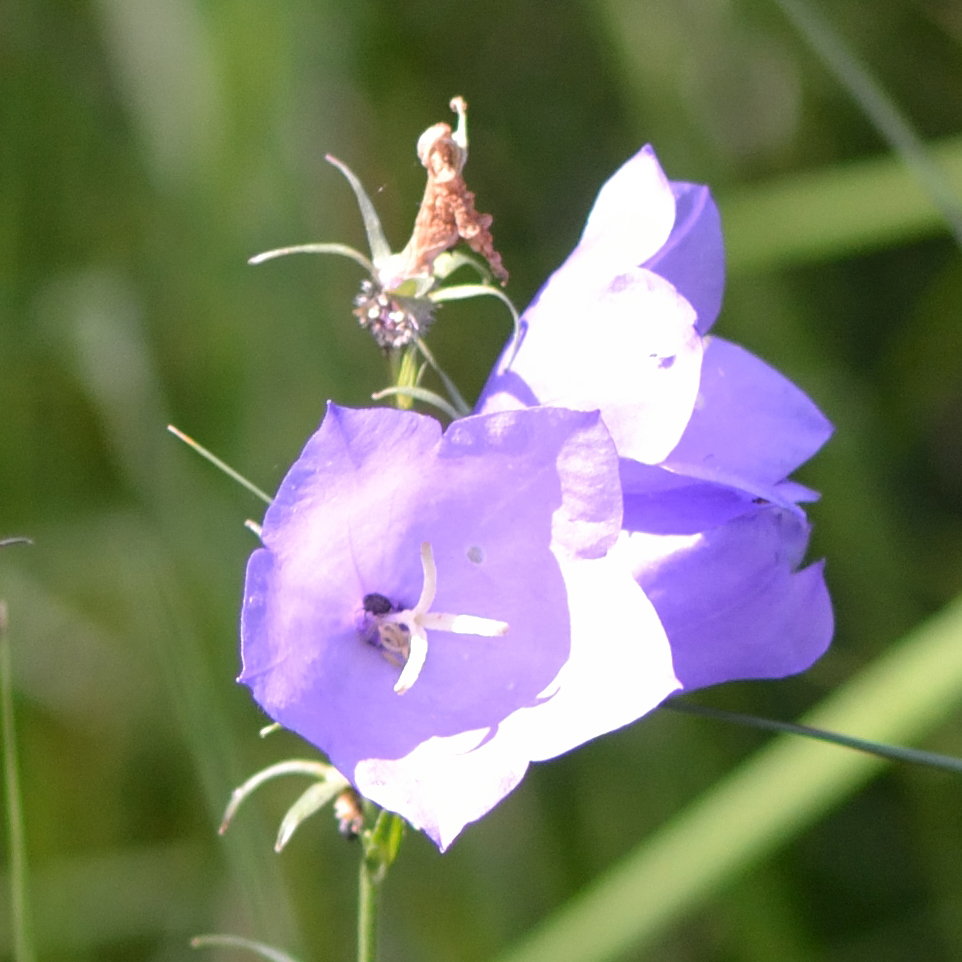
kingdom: Plantae
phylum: Tracheophyta
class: Magnoliopsida
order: Asterales
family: Campanulaceae
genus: Campanula
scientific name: Campanula persicifolia
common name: Peach-leaved bellflower
